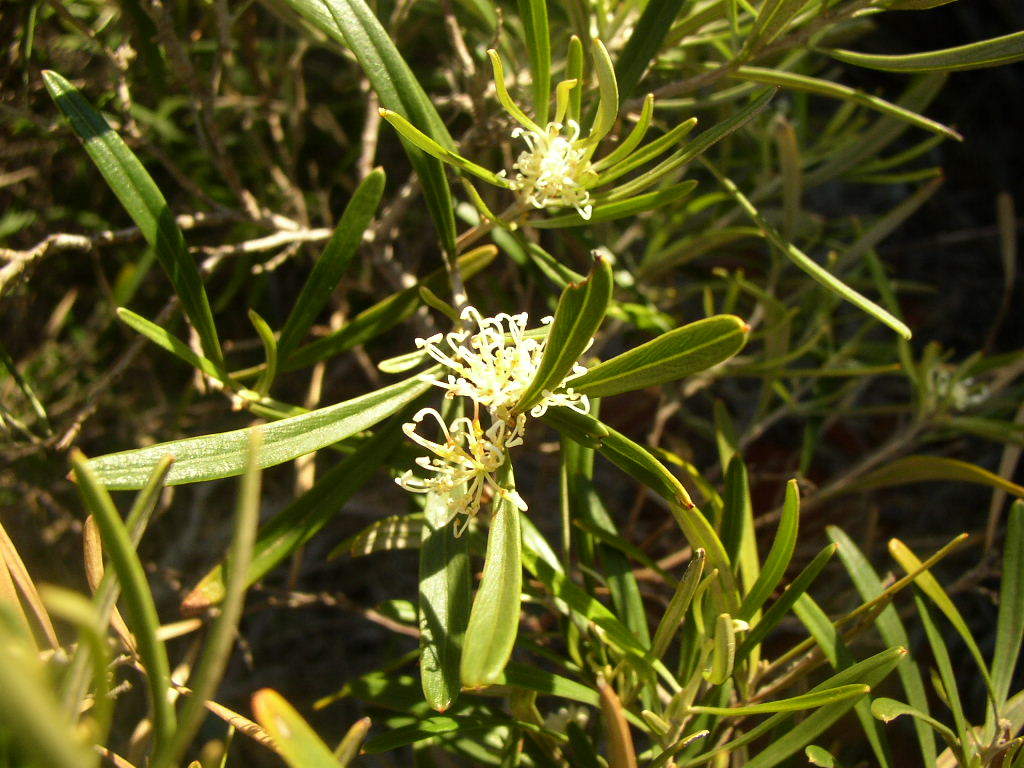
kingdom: Plantae
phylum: Tracheophyta
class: Magnoliopsida
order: Proteales
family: Proteaceae
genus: Grevillea
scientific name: Grevillea argyrophylla
